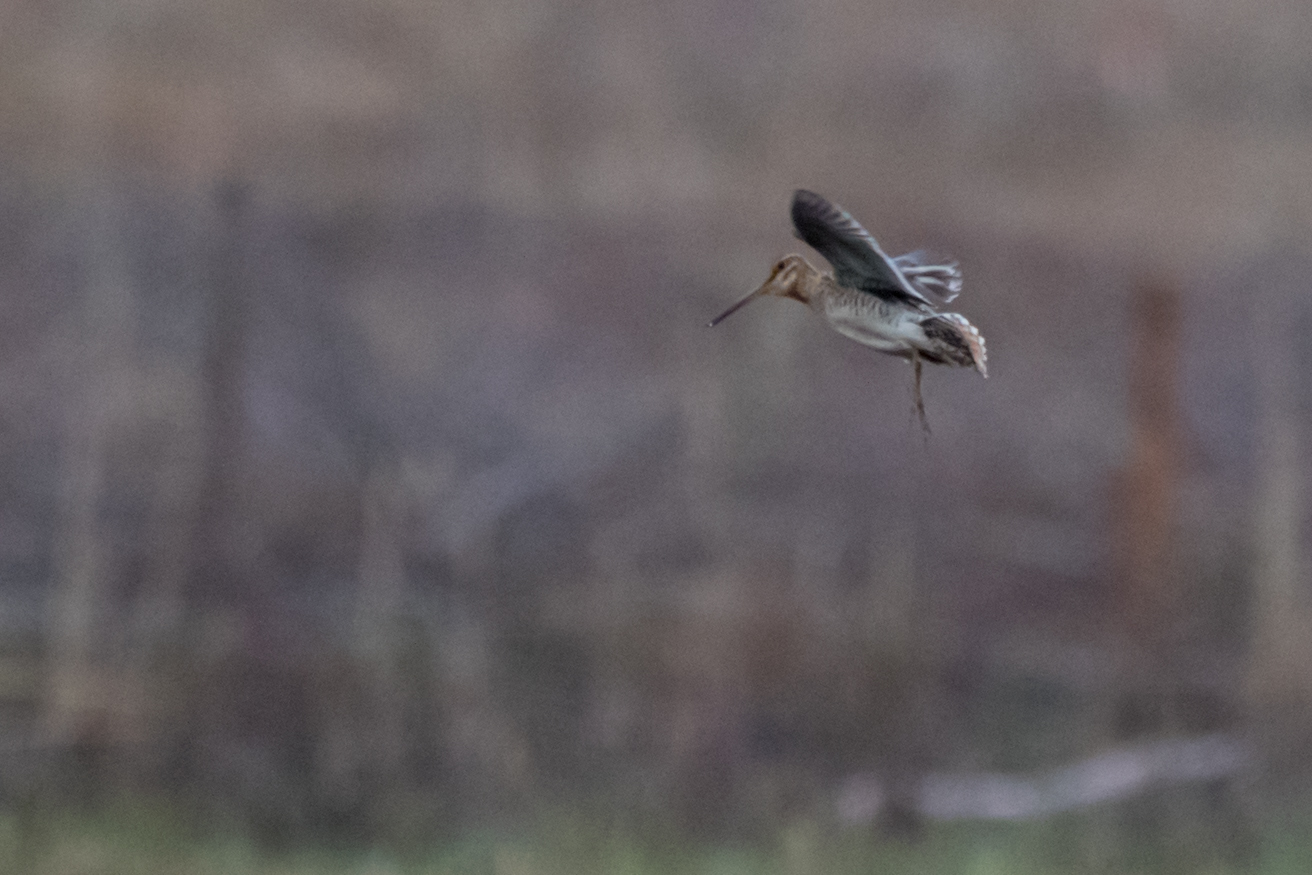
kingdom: Animalia
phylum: Chordata
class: Aves
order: Charadriiformes
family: Scolopacidae
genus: Gallinago
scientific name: Gallinago gallinago
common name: Common snipe
